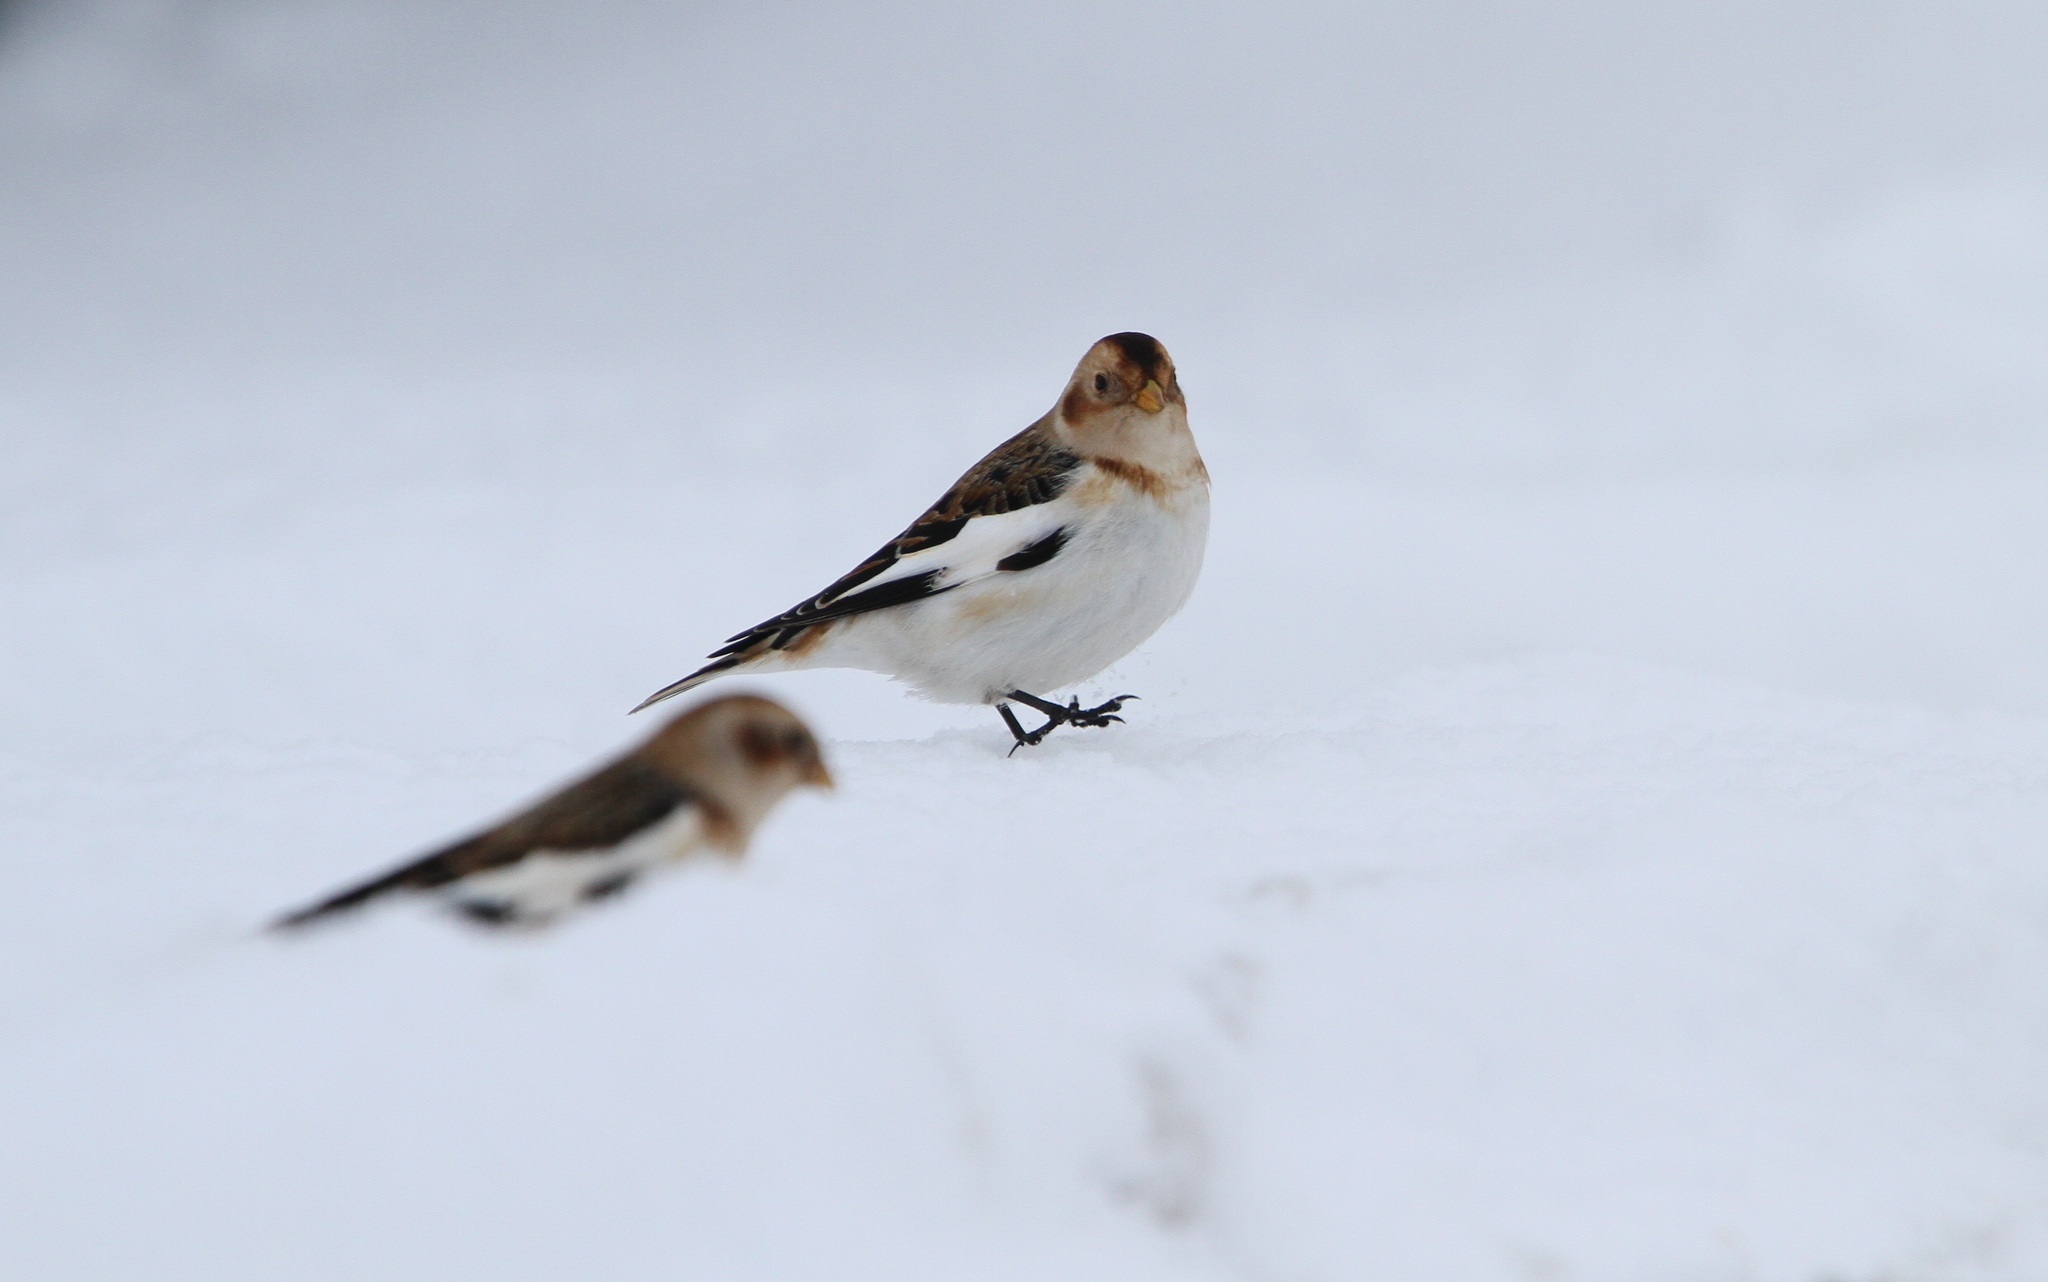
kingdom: Animalia
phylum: Chordata
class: Aves
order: Passeriformes
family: Calcariidae
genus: Plectrophenax
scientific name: Plectrophenax nivalis
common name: Snow bunting
